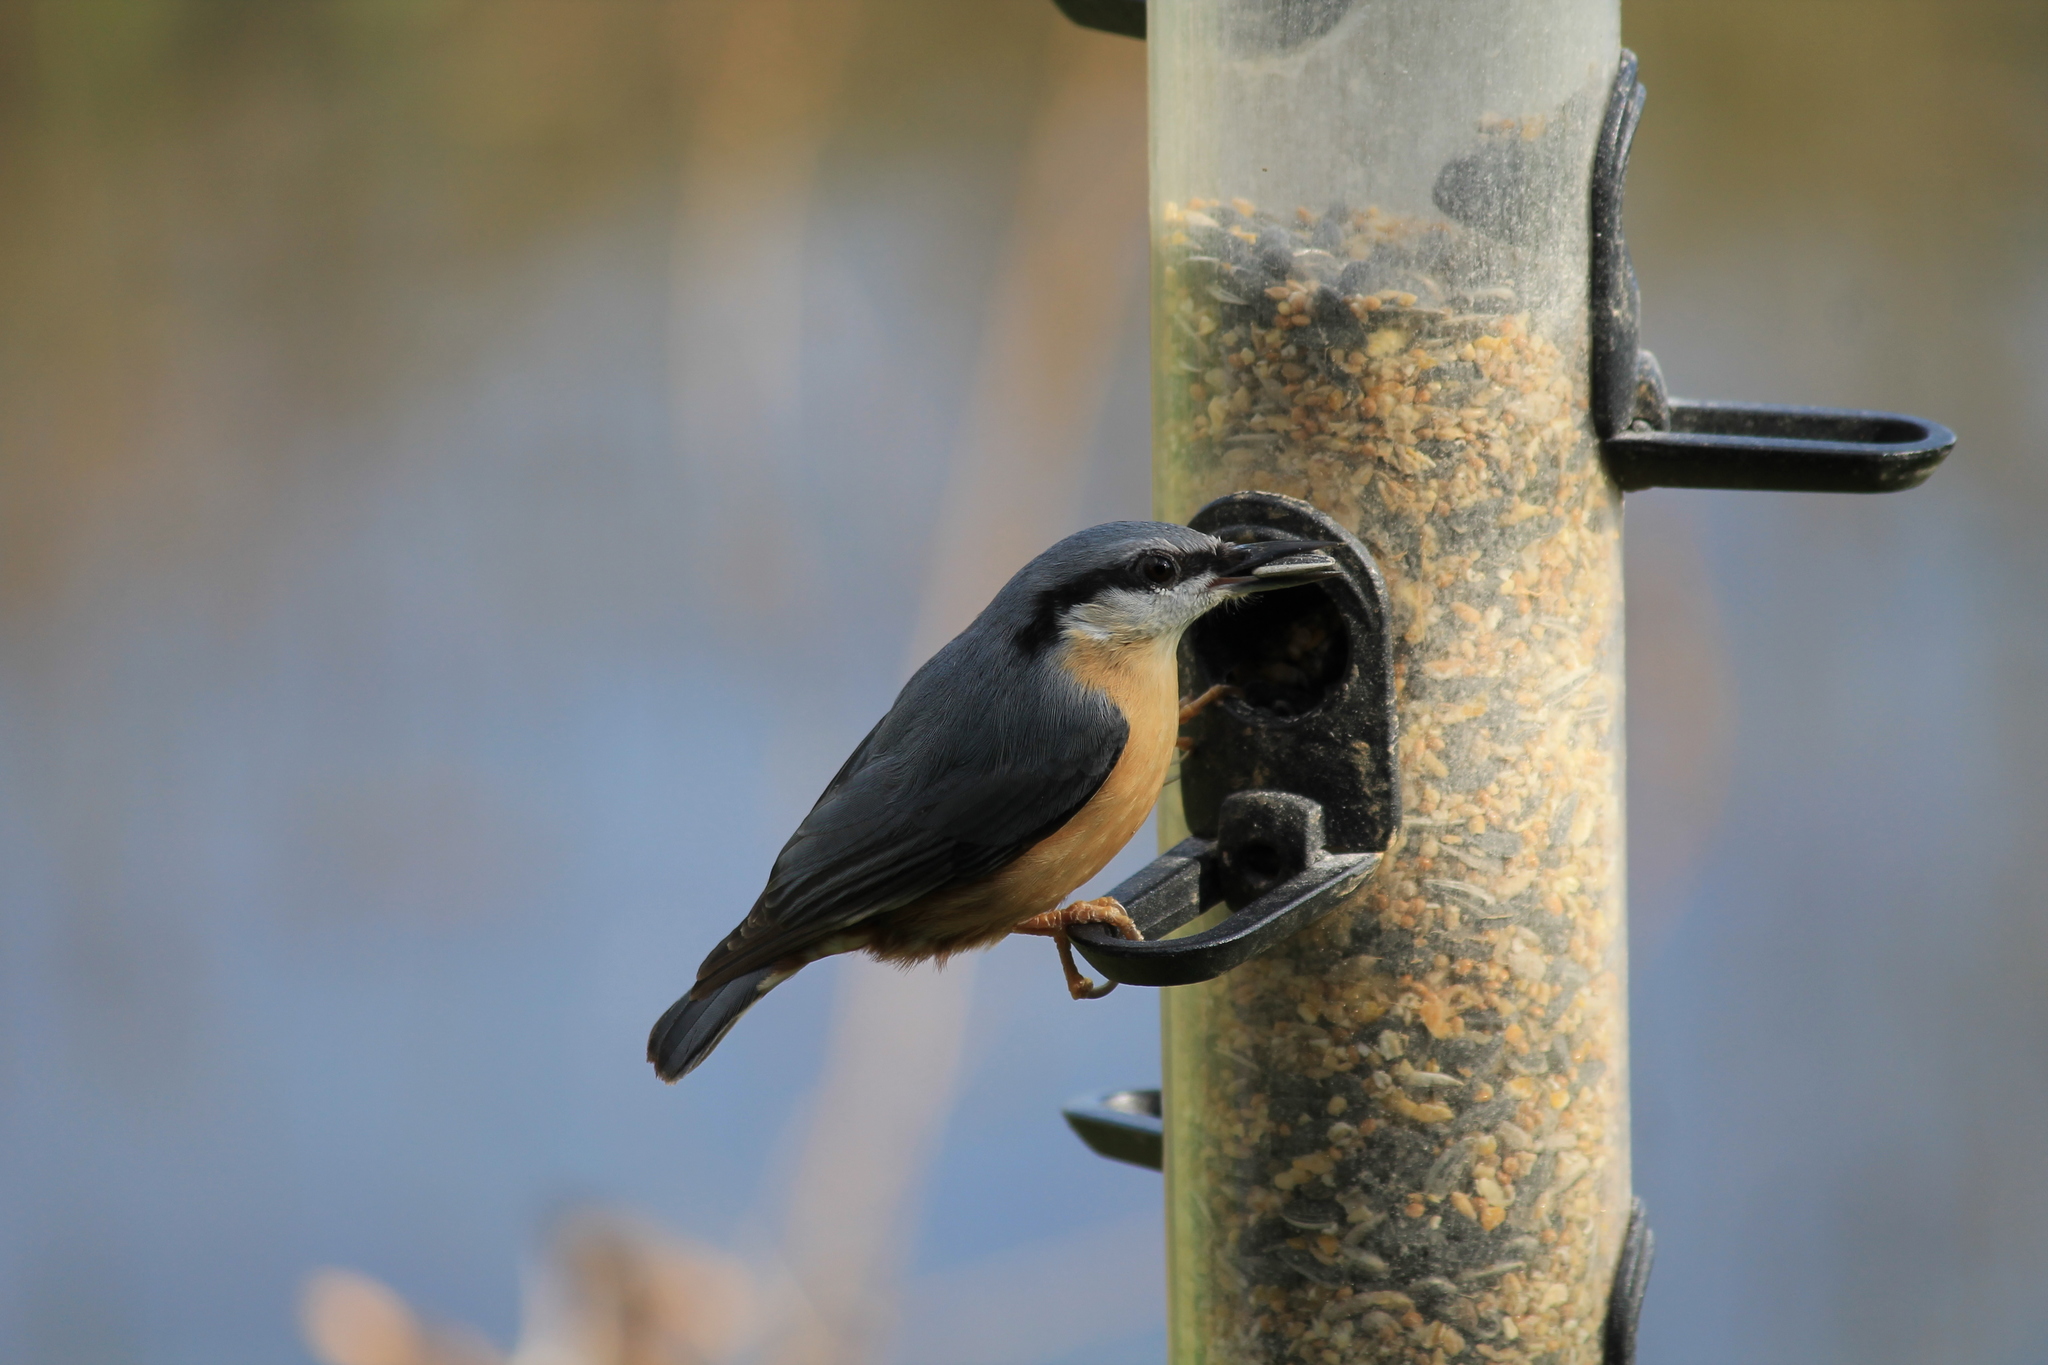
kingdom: Animalia
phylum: Chordata
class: Aves
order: Passeriformes
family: Sittidae
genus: Sitta
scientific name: Sitta europaea
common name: Eurasian nuthatch
